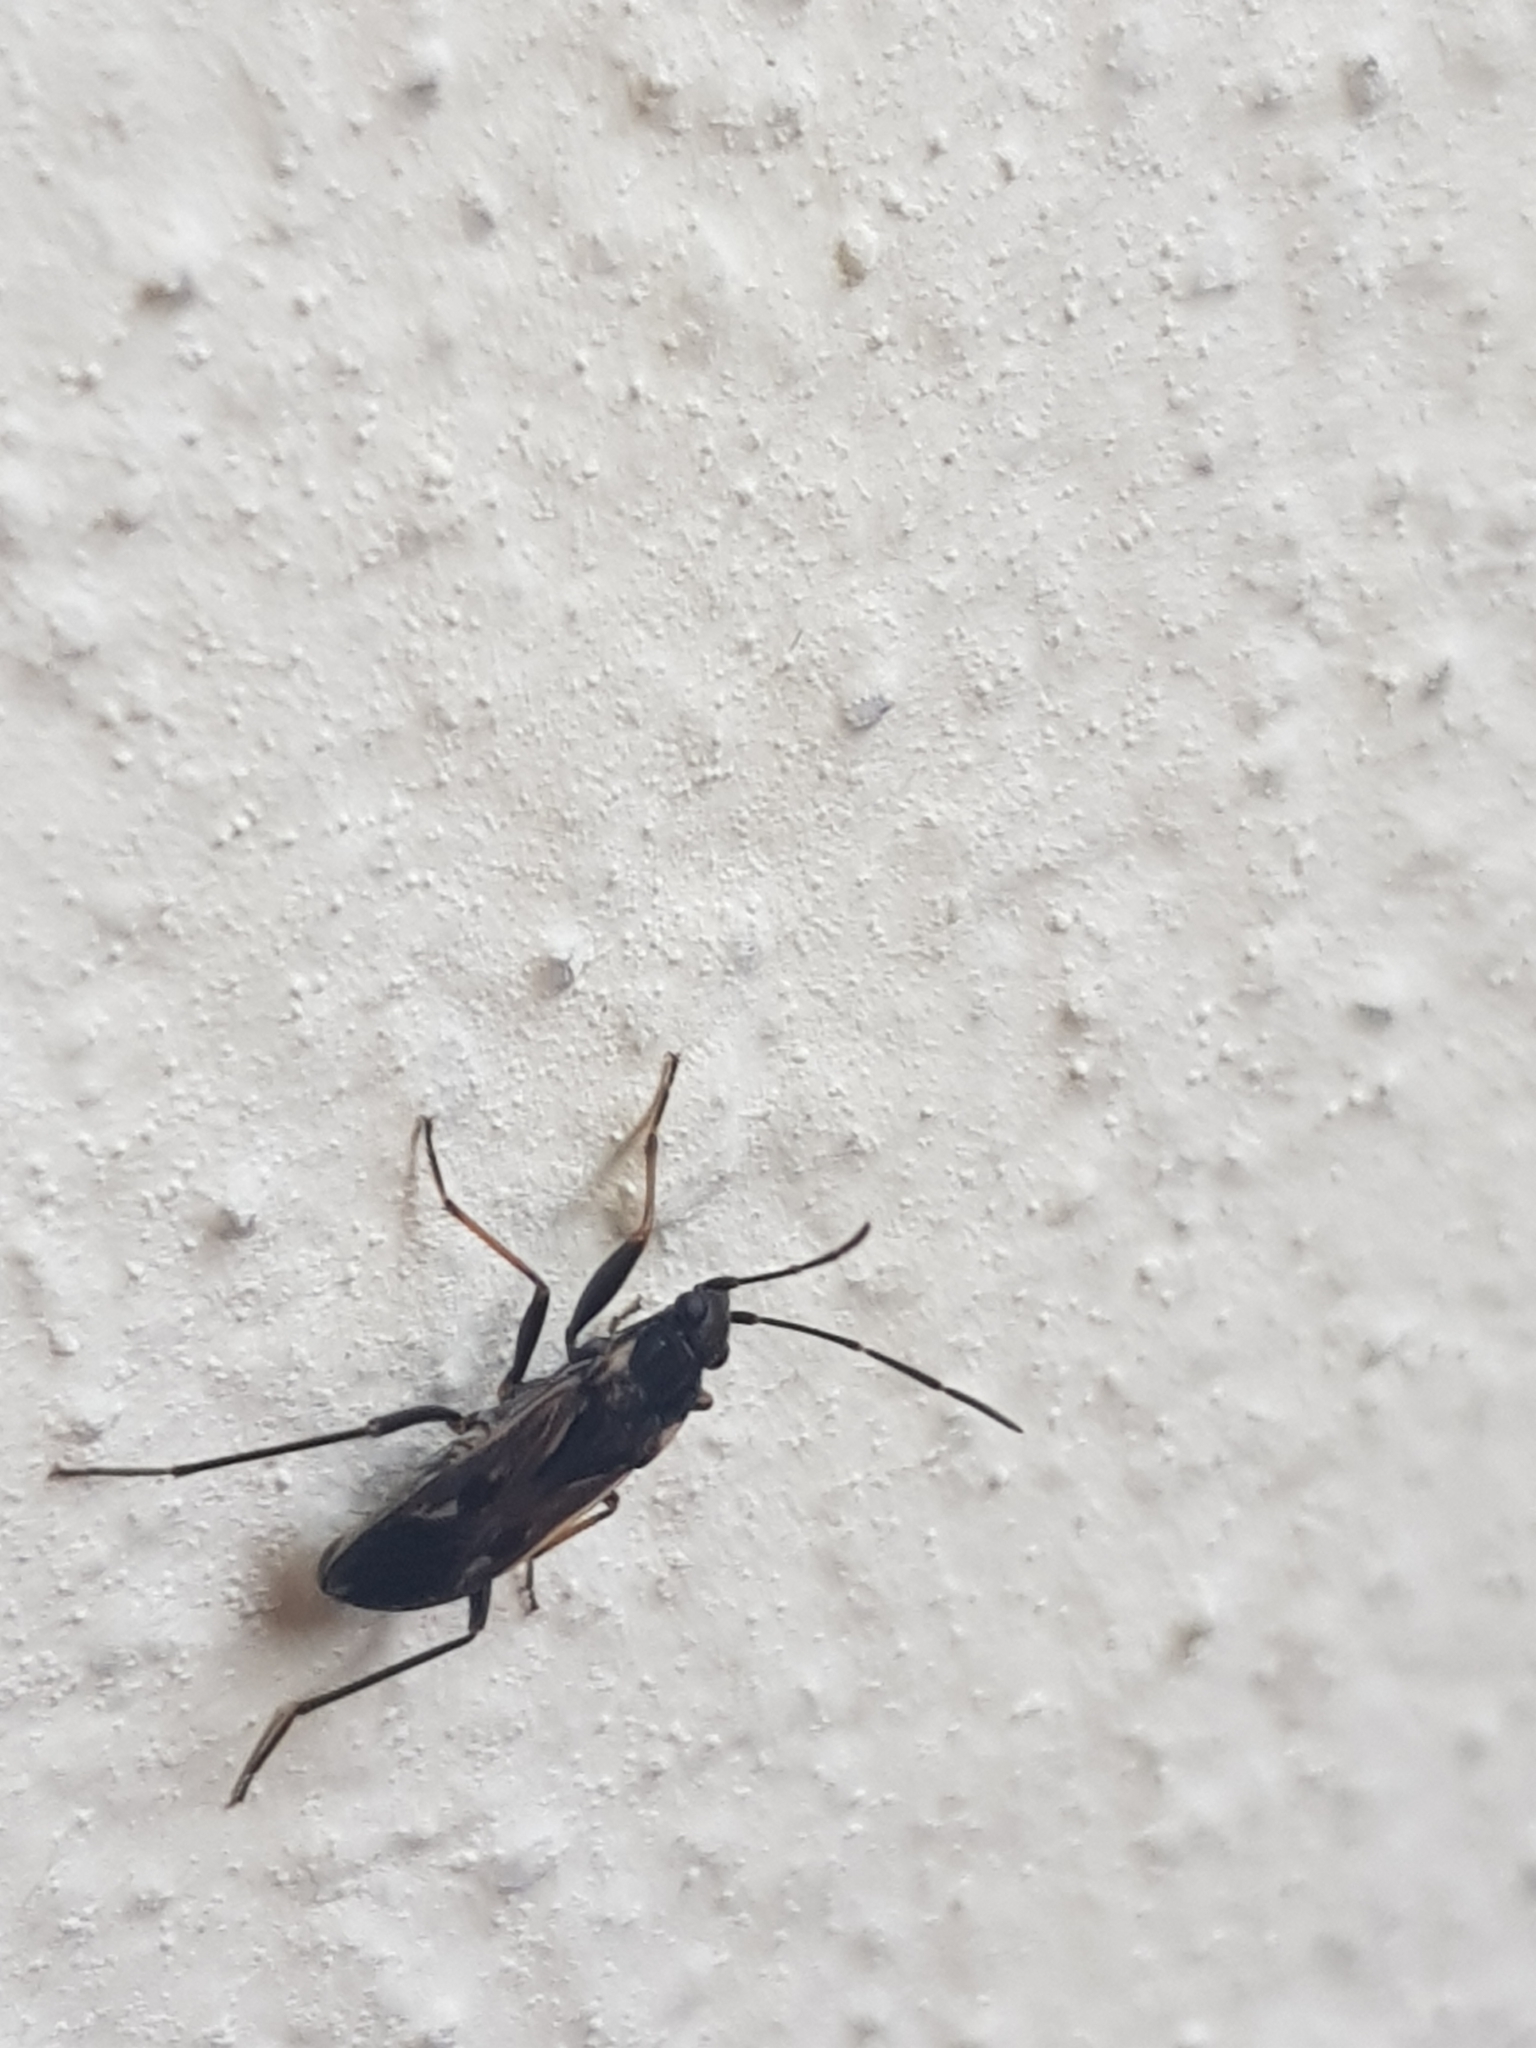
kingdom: Animalia
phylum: Arthropoda
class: Insecta
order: Hemiptera
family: Rhyparochromidae
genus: Rhyparochromus
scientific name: Rhyparochromus vulgaris
